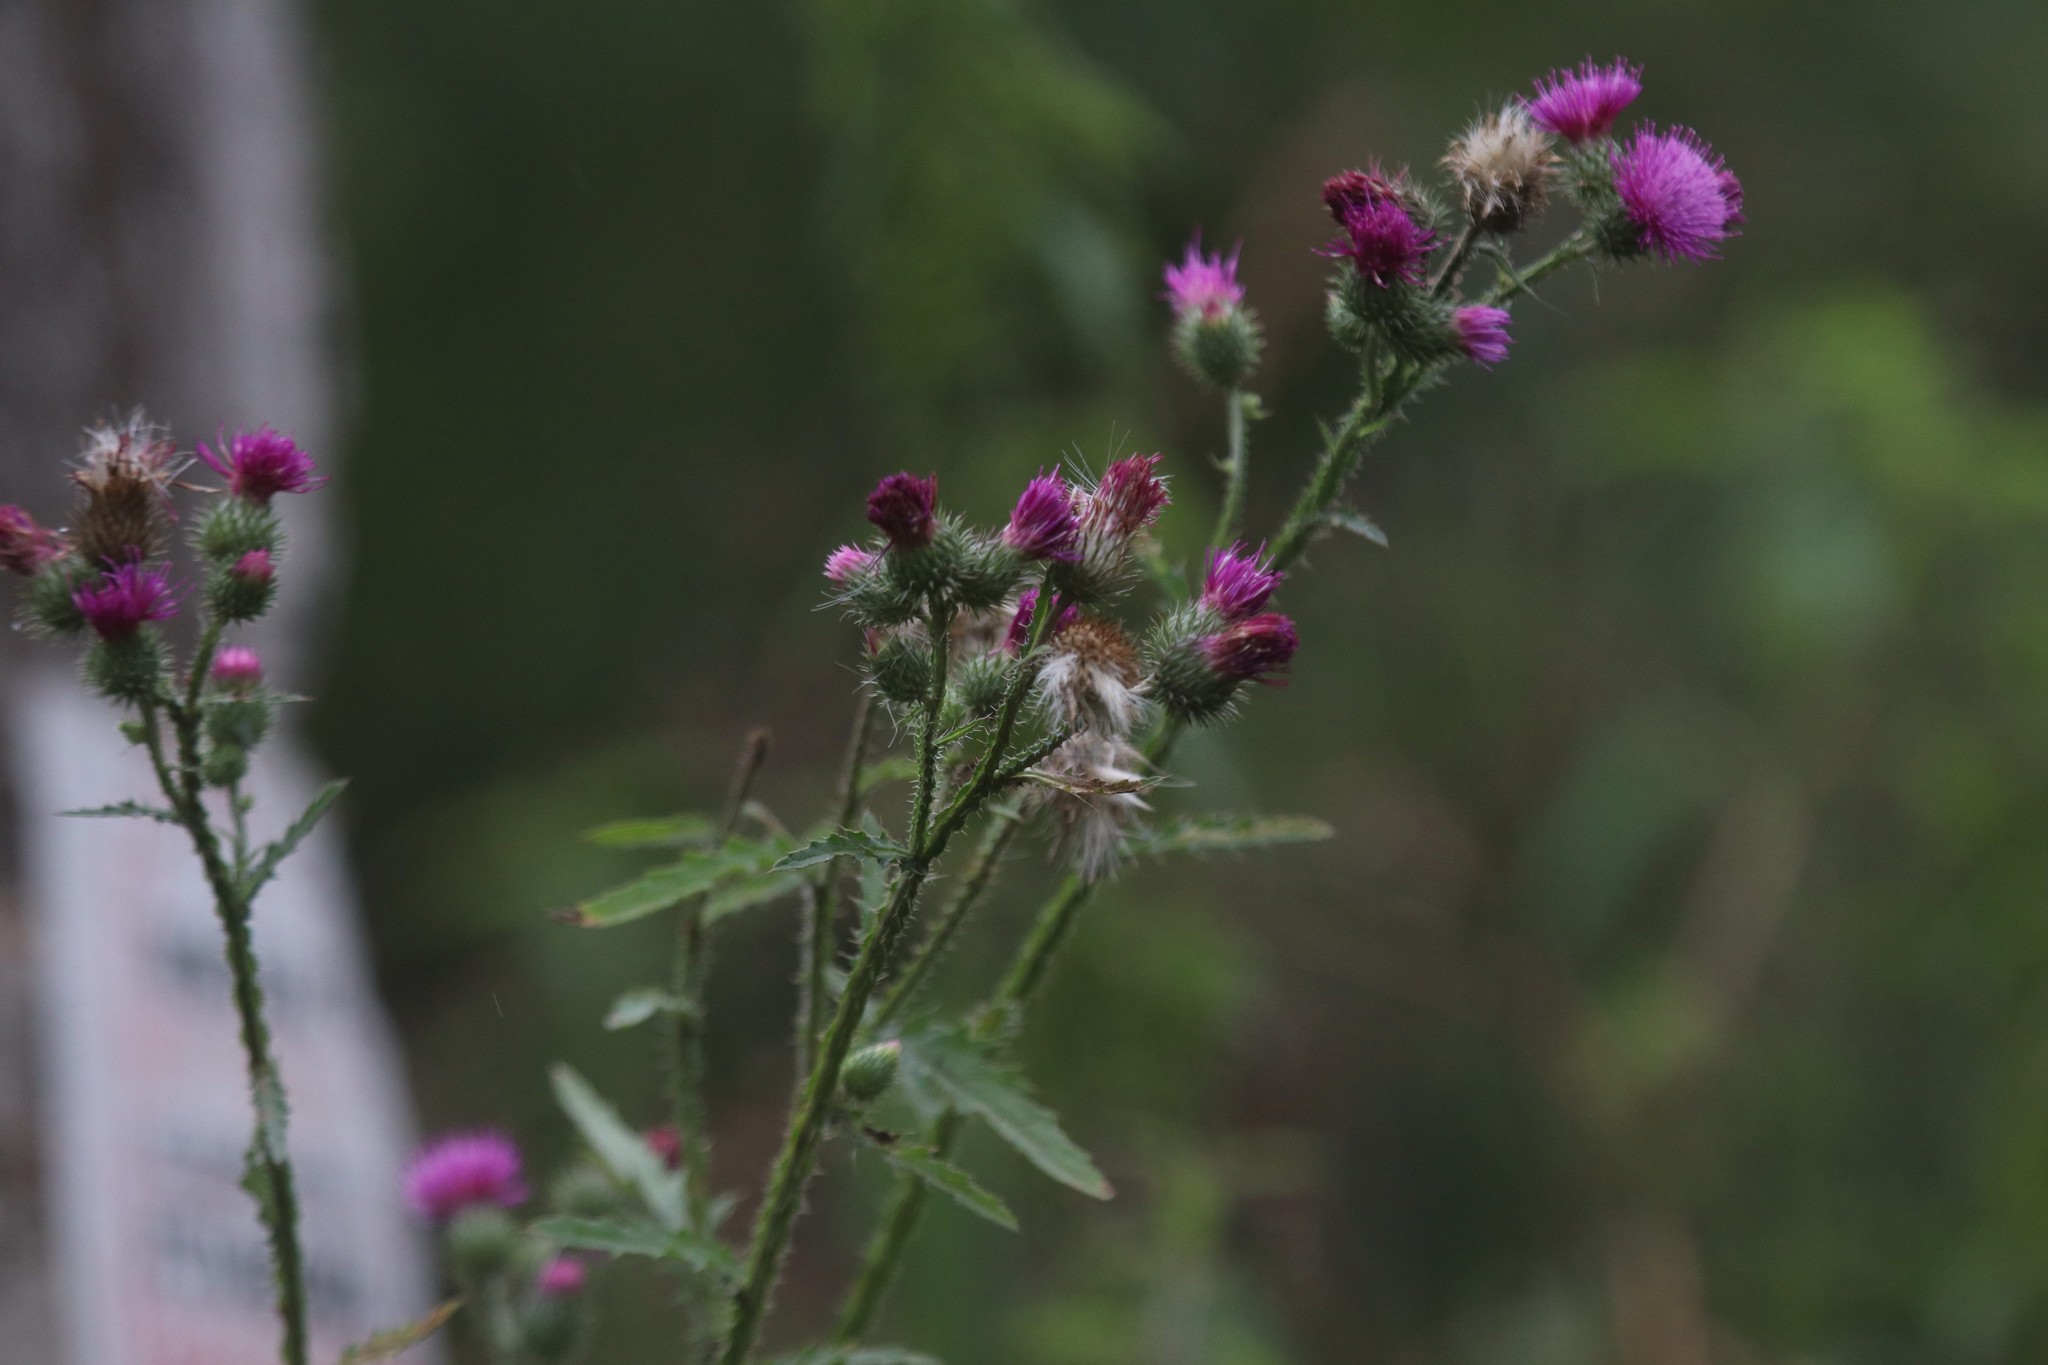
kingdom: Plantae
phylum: Tracheophyta
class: Magnoliopsida
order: Asterales
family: Asteraceae
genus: Carduus
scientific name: Carduus crispus
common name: Welted thistle
